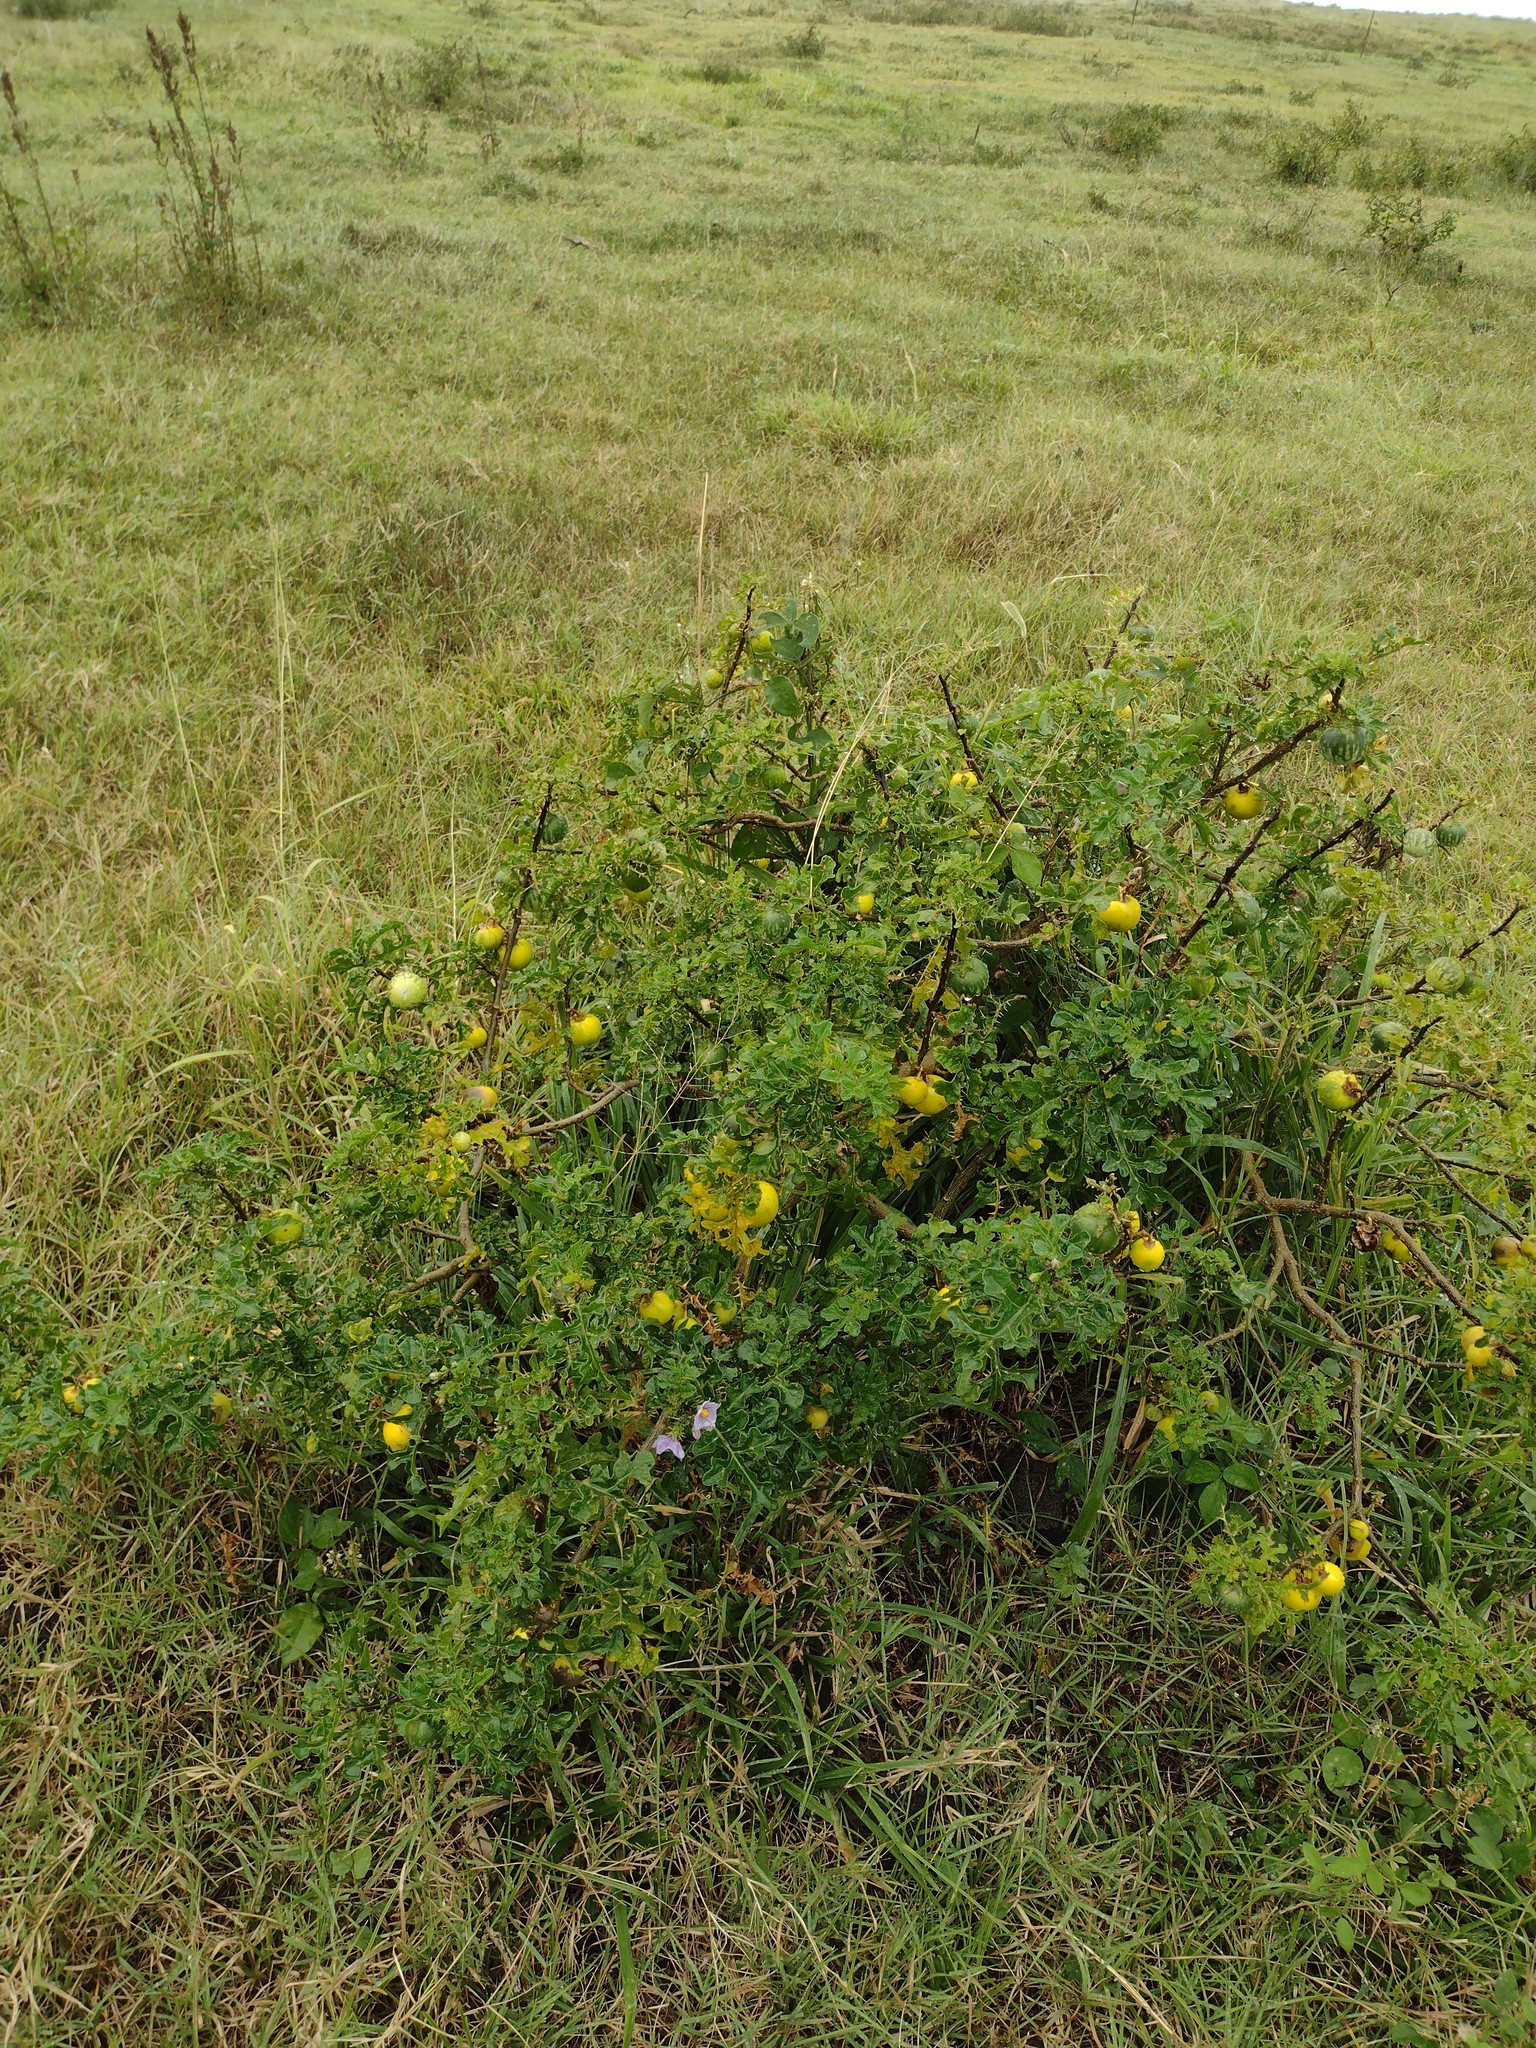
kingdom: Plantae
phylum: Tracheophyta
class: Magnoliopsida
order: Solanales
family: Solanaceae
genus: Solanum
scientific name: Solanum linnaeanum
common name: Nightshade
